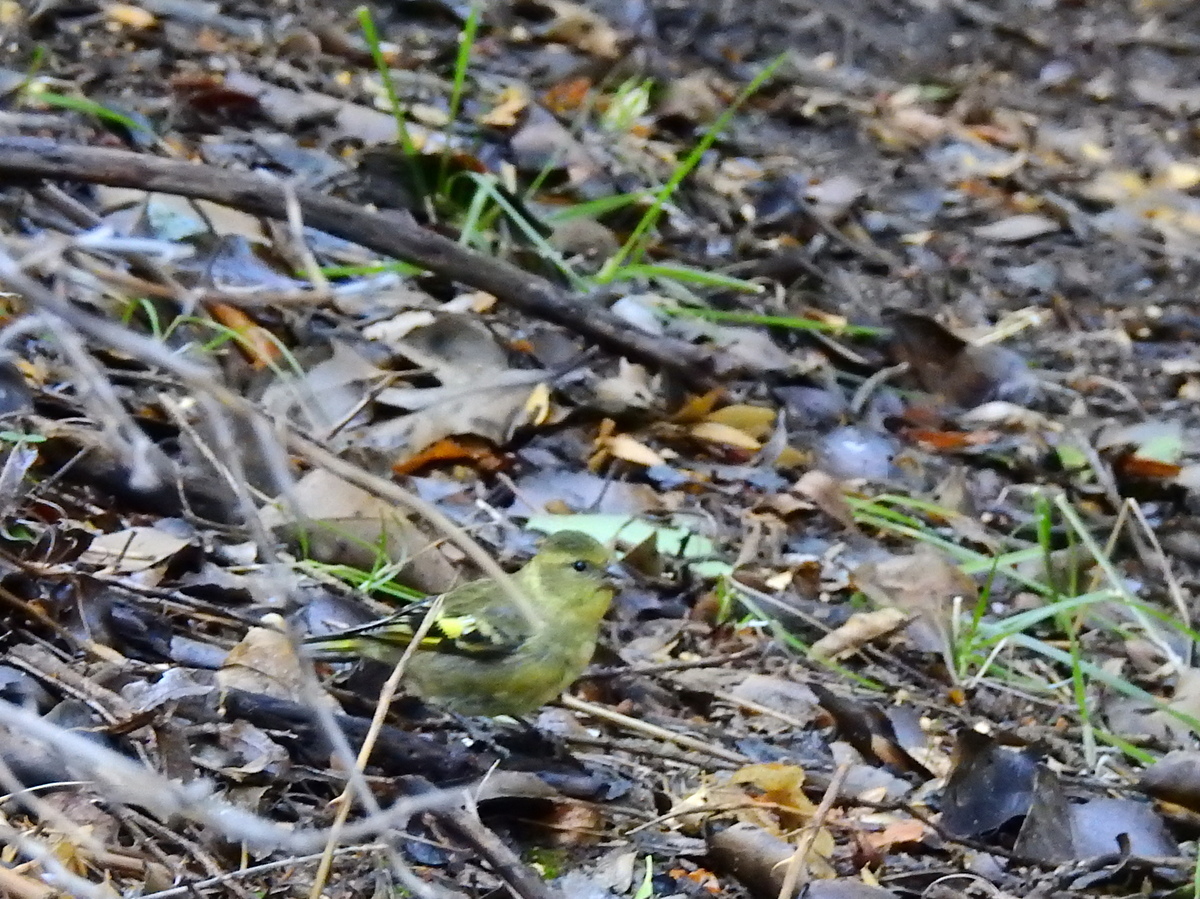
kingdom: Animalia
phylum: Chordata
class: Aves
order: Passeriformes
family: Fringillidae
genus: Spinus
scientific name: Spinus barbatus
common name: Black-chinned siskin
